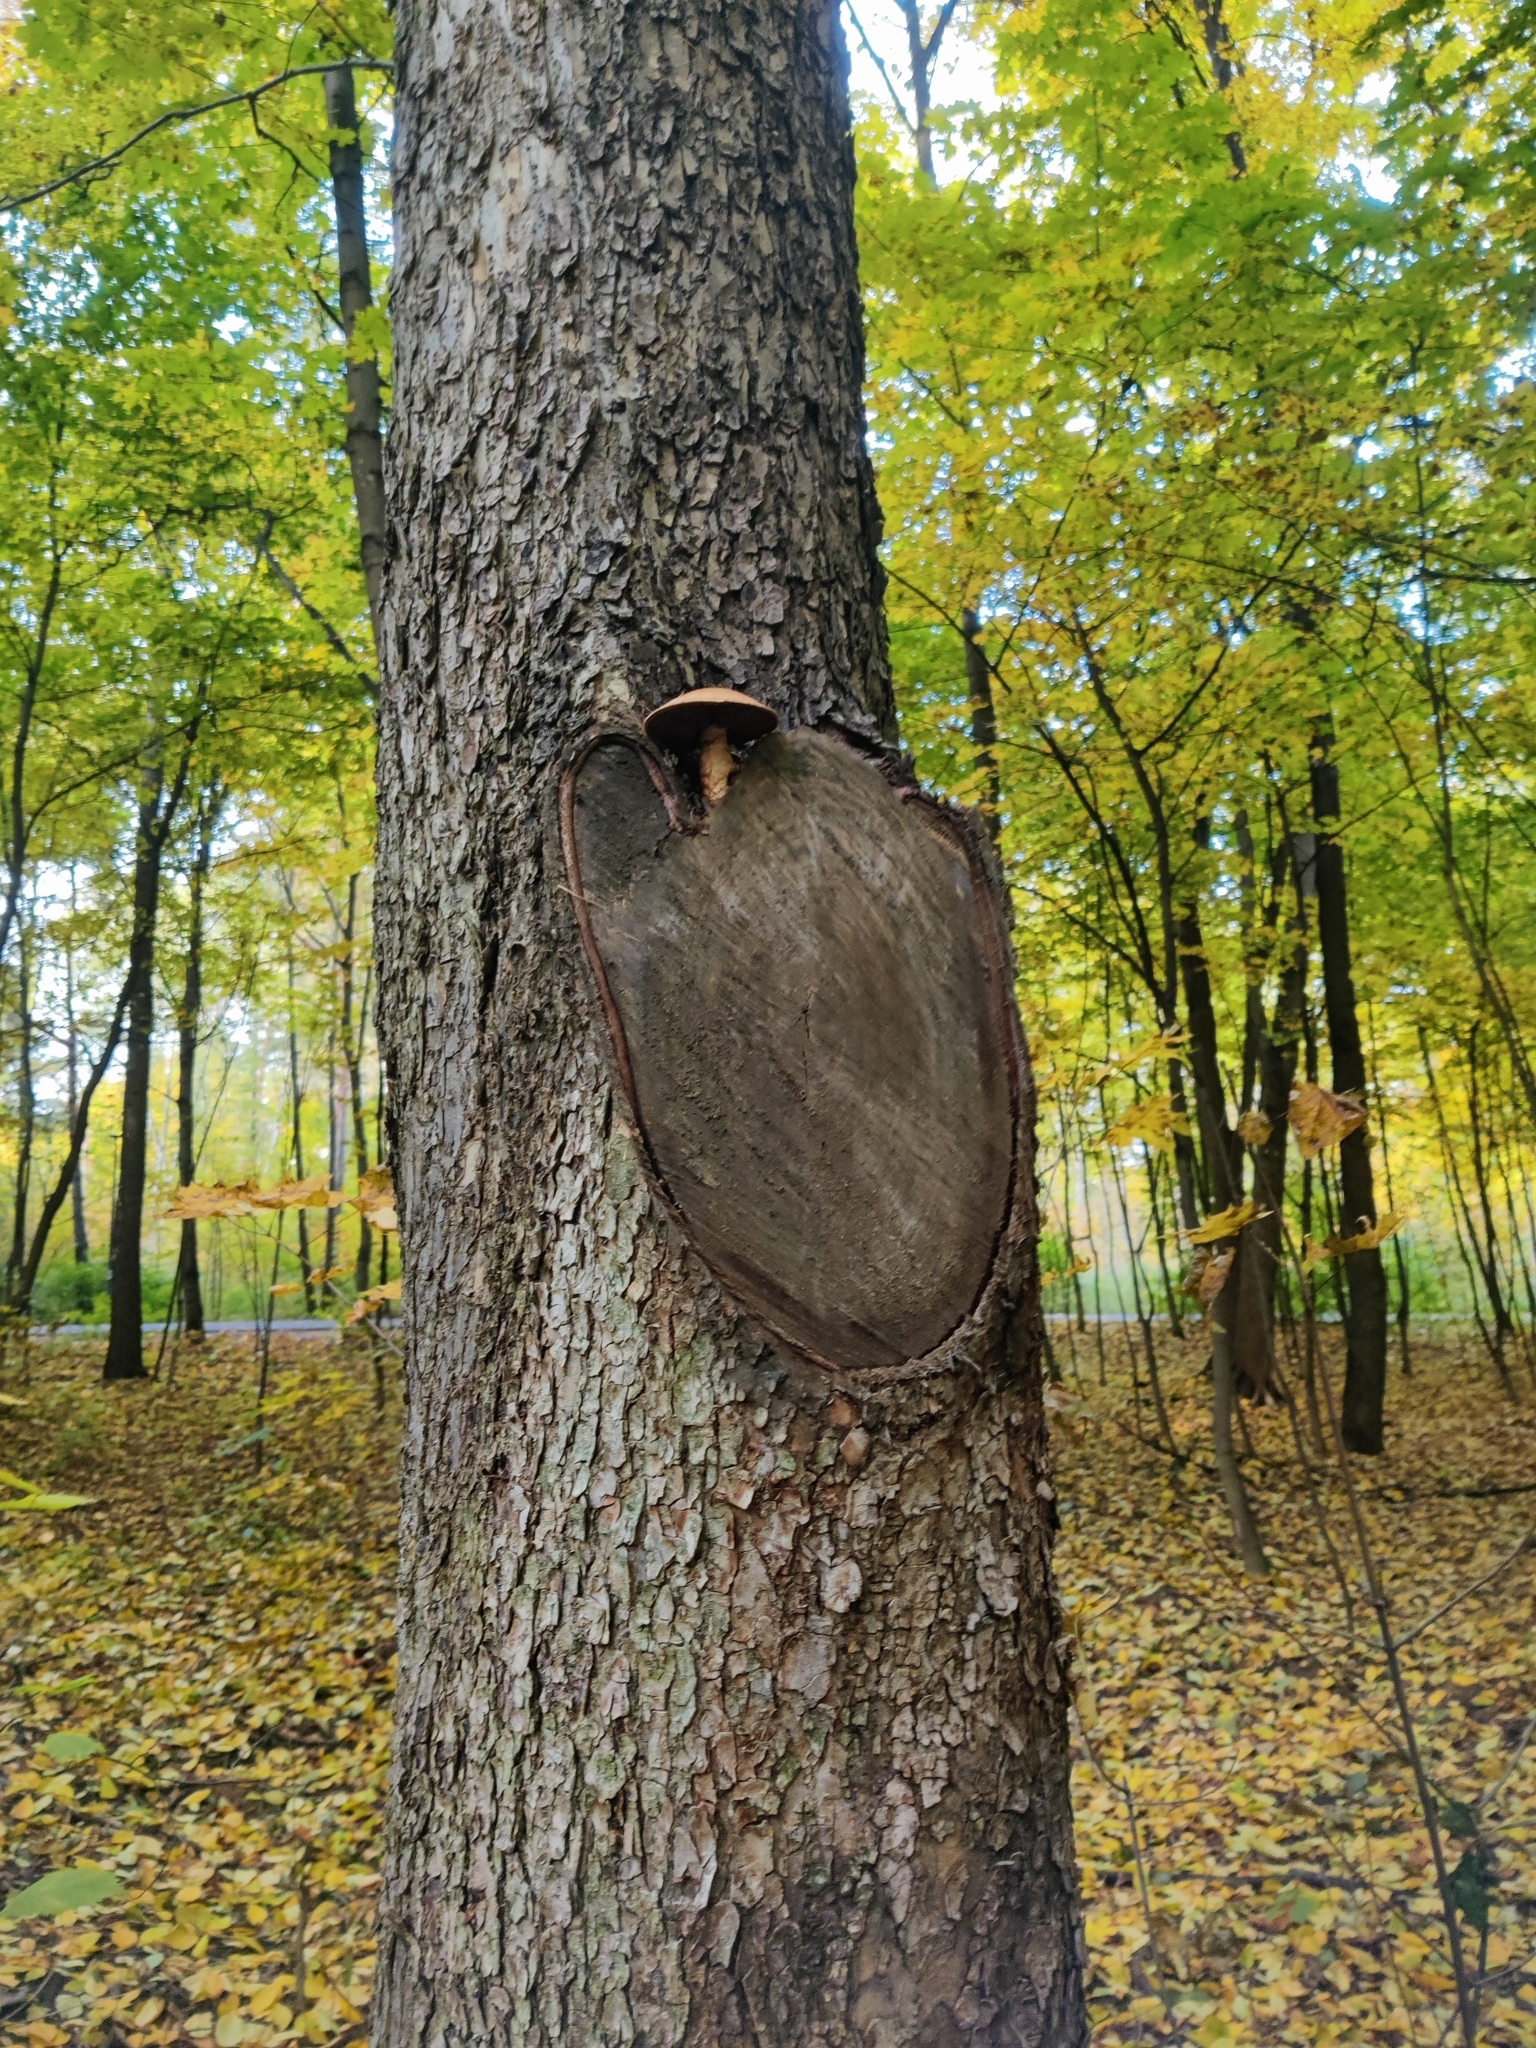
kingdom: Fungi
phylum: Basidiomycota
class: Agaricomycetes
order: Agaricales
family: Strophariaceae
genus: Pholiota
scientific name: Pholiota populnea
